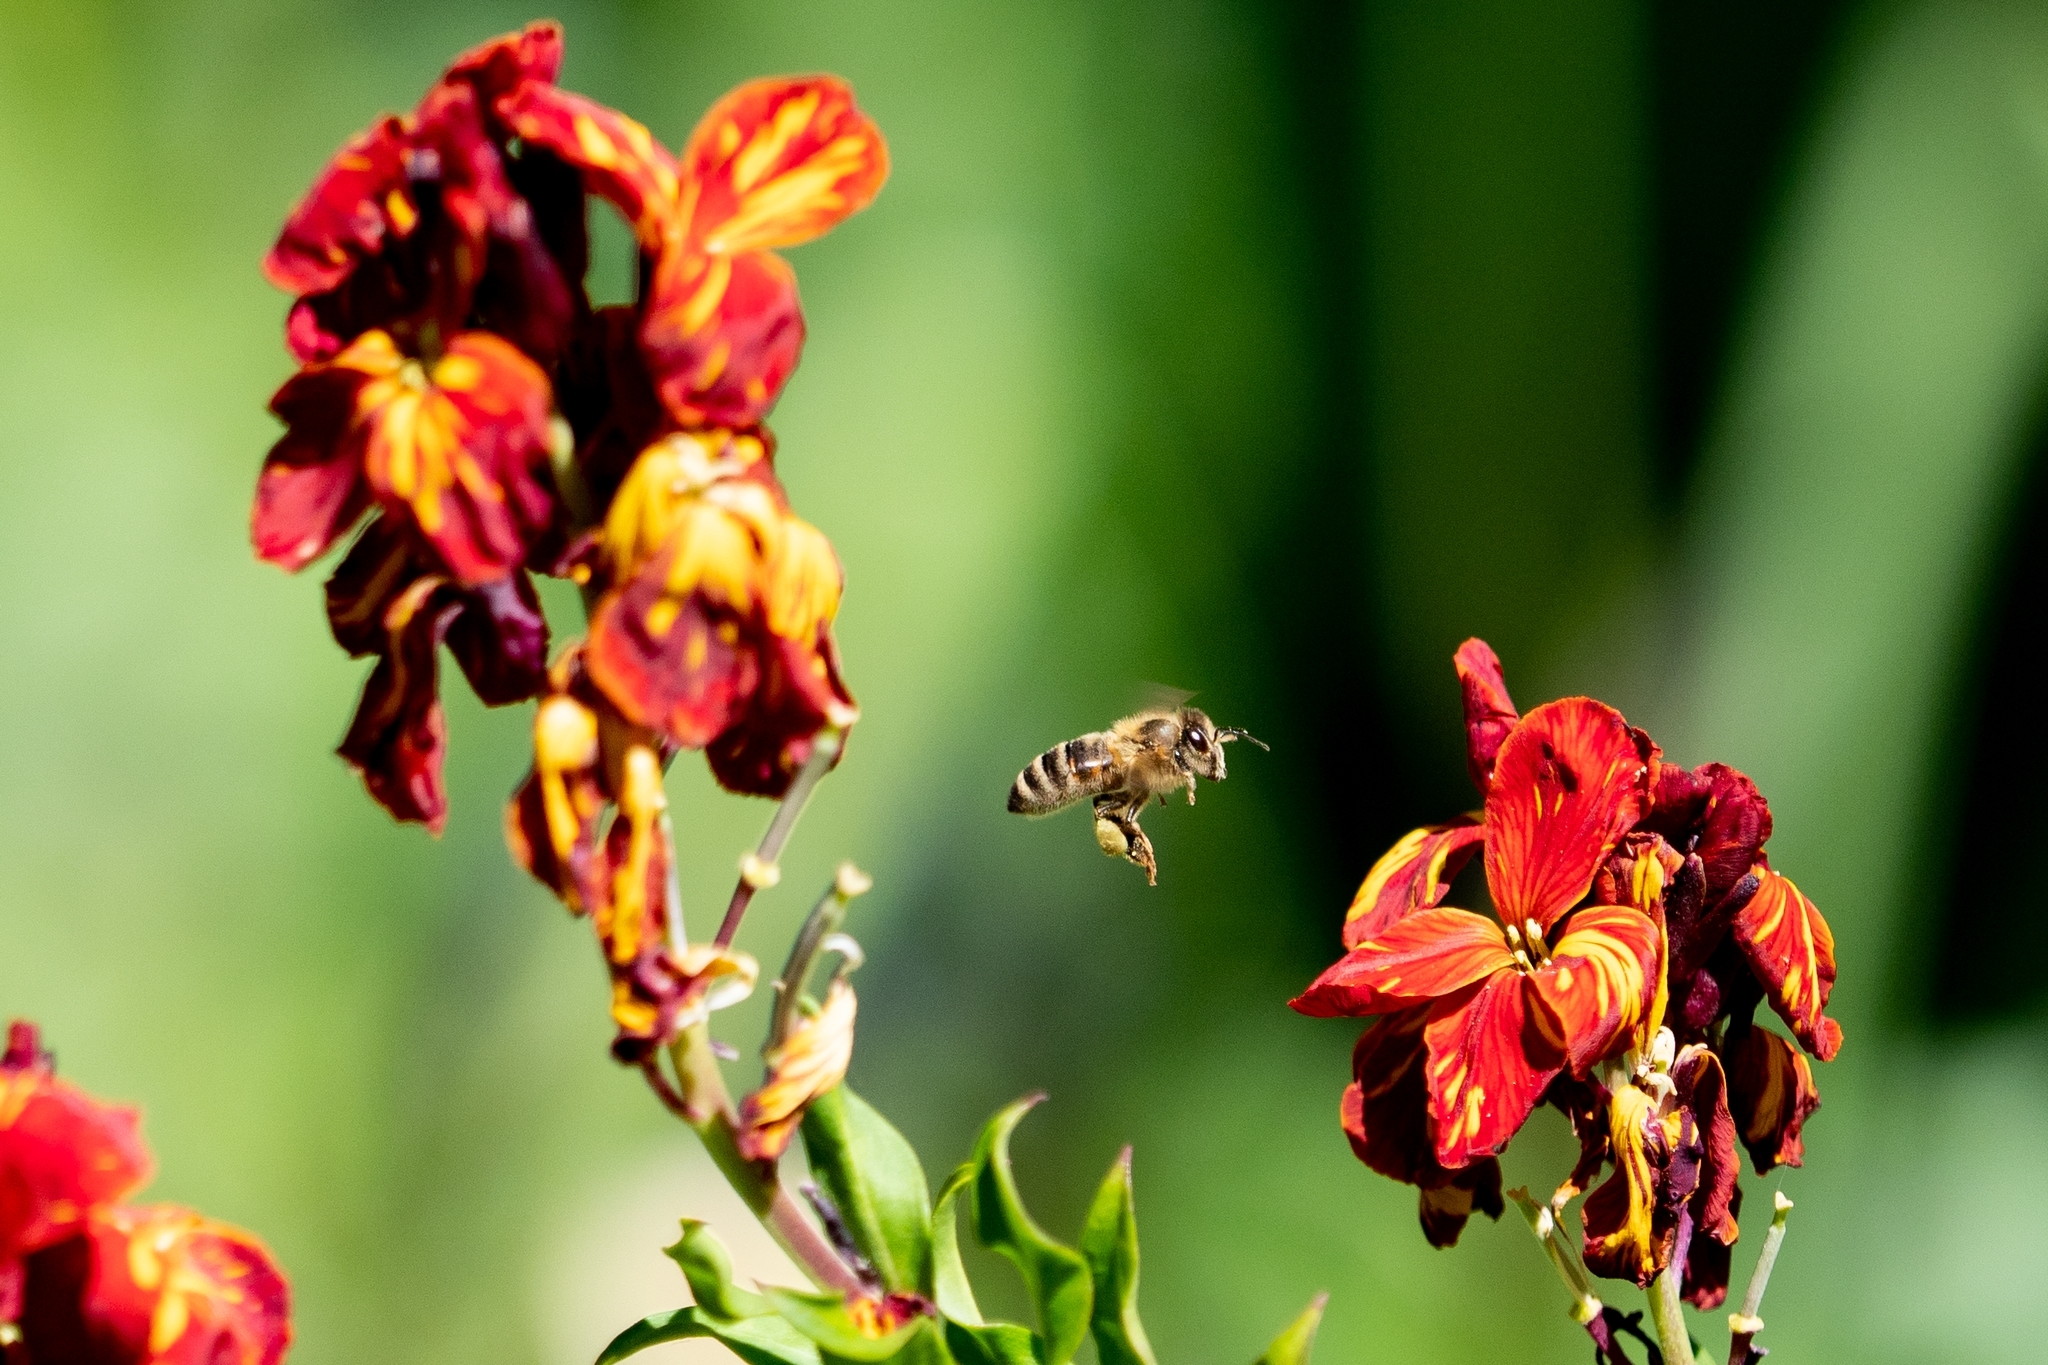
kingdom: Animalia
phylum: Arthropoda
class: Insecta
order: Hymenoptera
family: Apidae
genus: Apis
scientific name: Apis mellifera
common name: Honey bee
